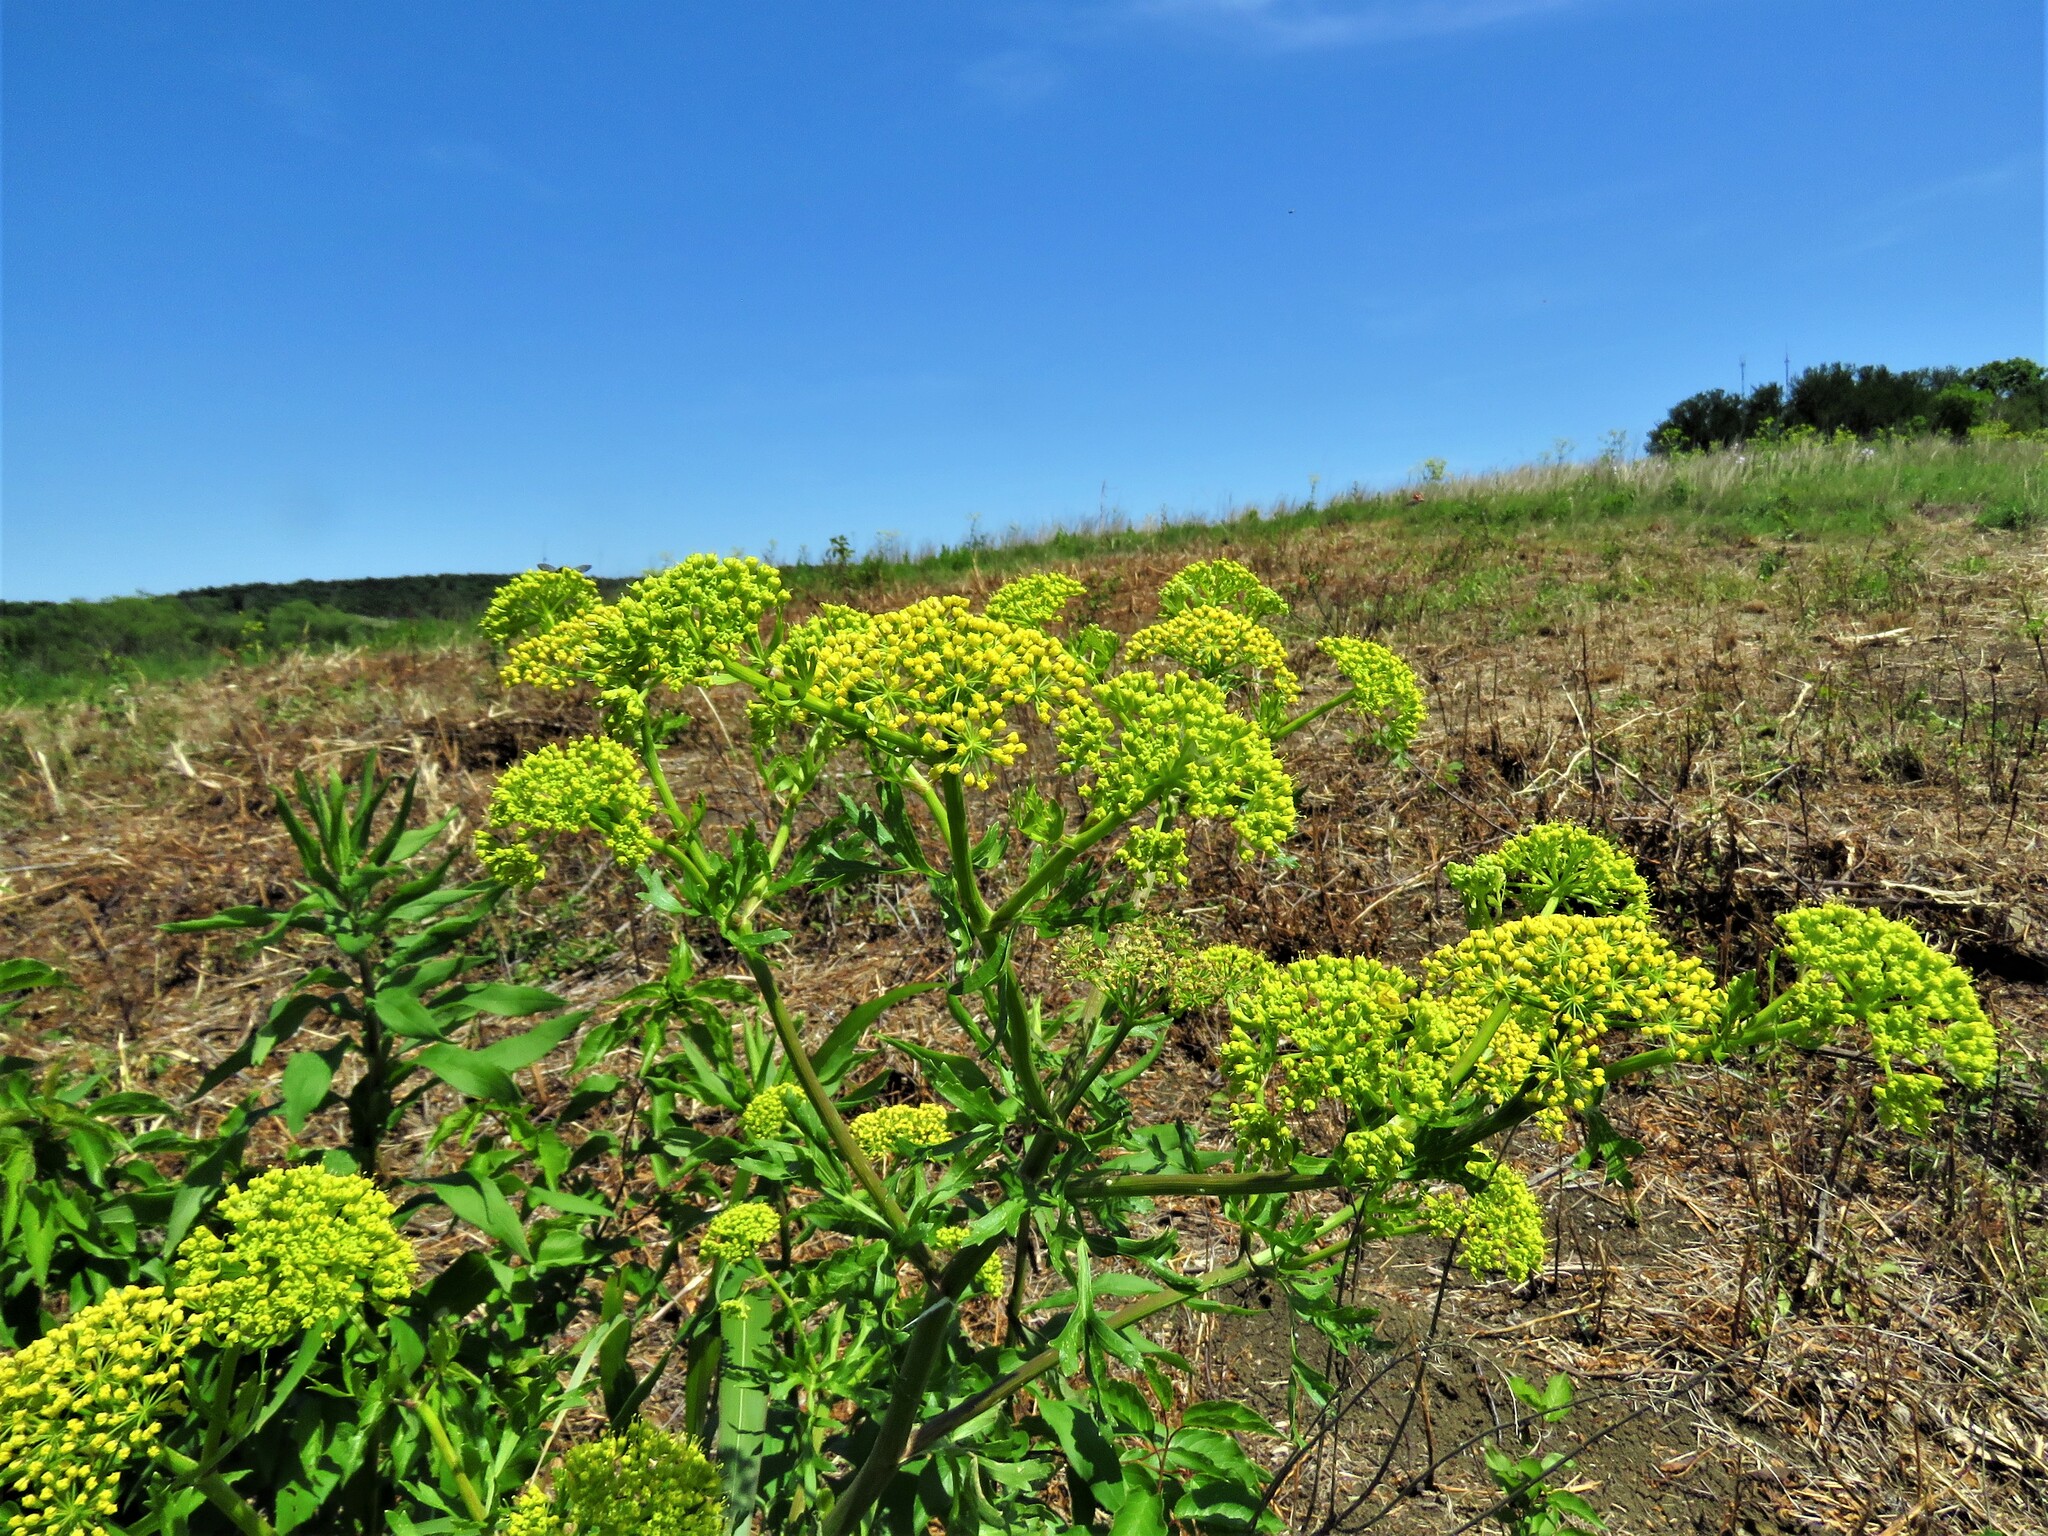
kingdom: Plantae
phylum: Tracheophyta
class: Magnoliopsida
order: Apiales
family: Apiaceae
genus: Polytaenia
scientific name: Polytaenia texana
